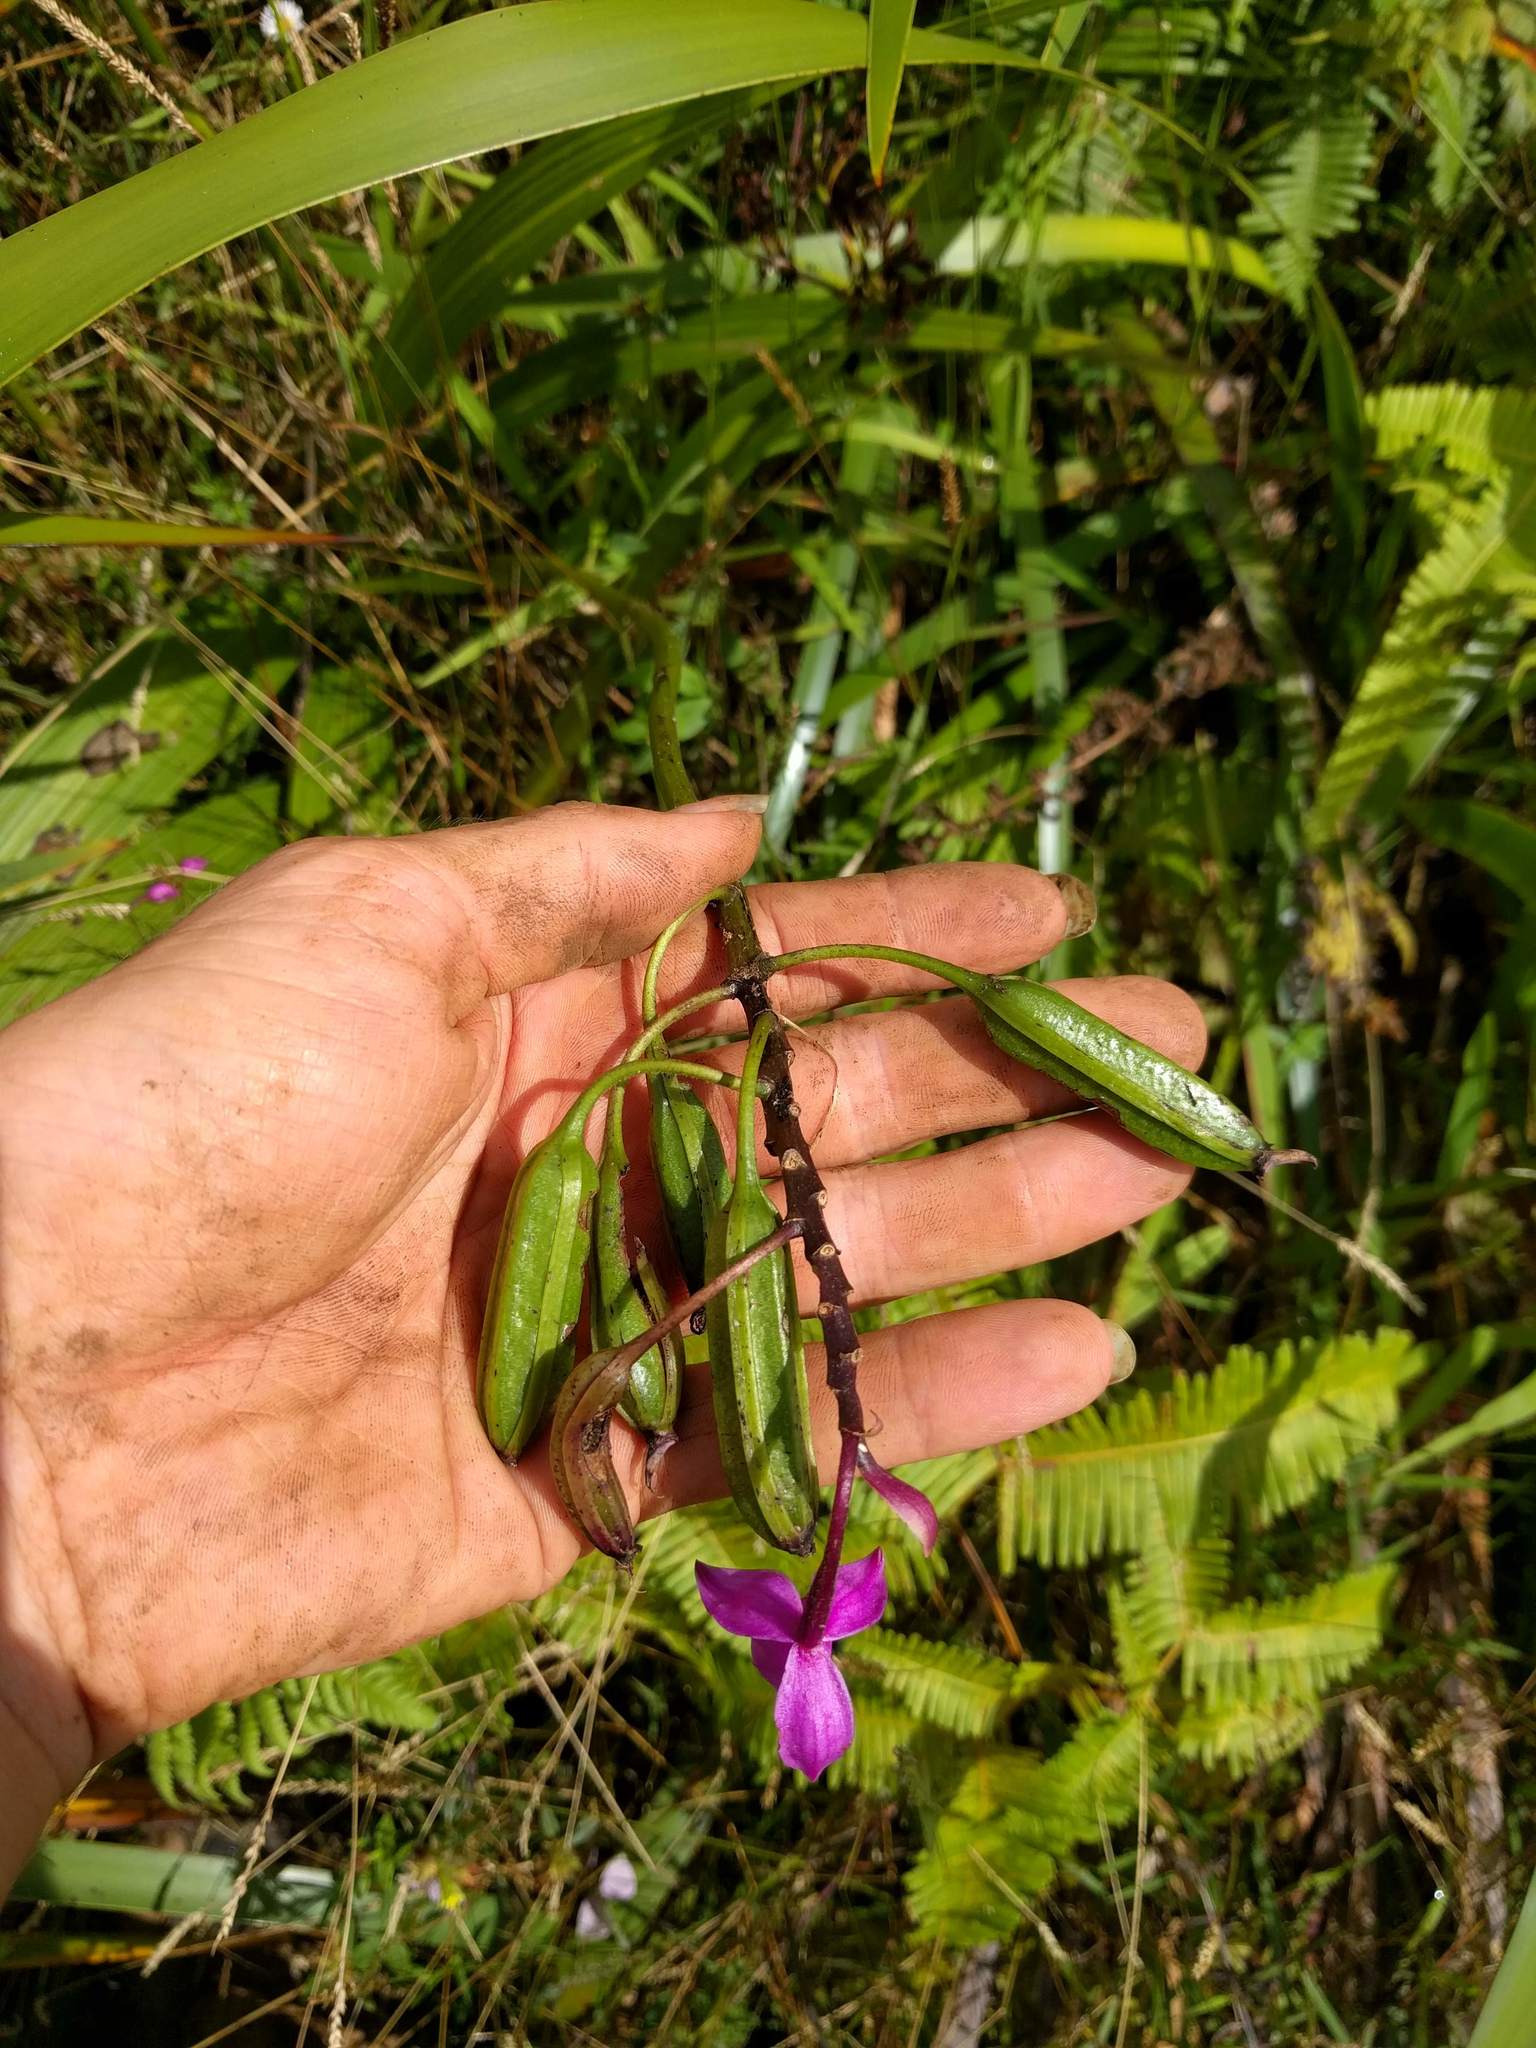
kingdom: Plantae
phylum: Tracheophyta
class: Liliopsida
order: Asparagales
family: Orchidaceae
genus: Spathoglottis
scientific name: Spathoglottis plicata
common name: Philippine ground orchid
